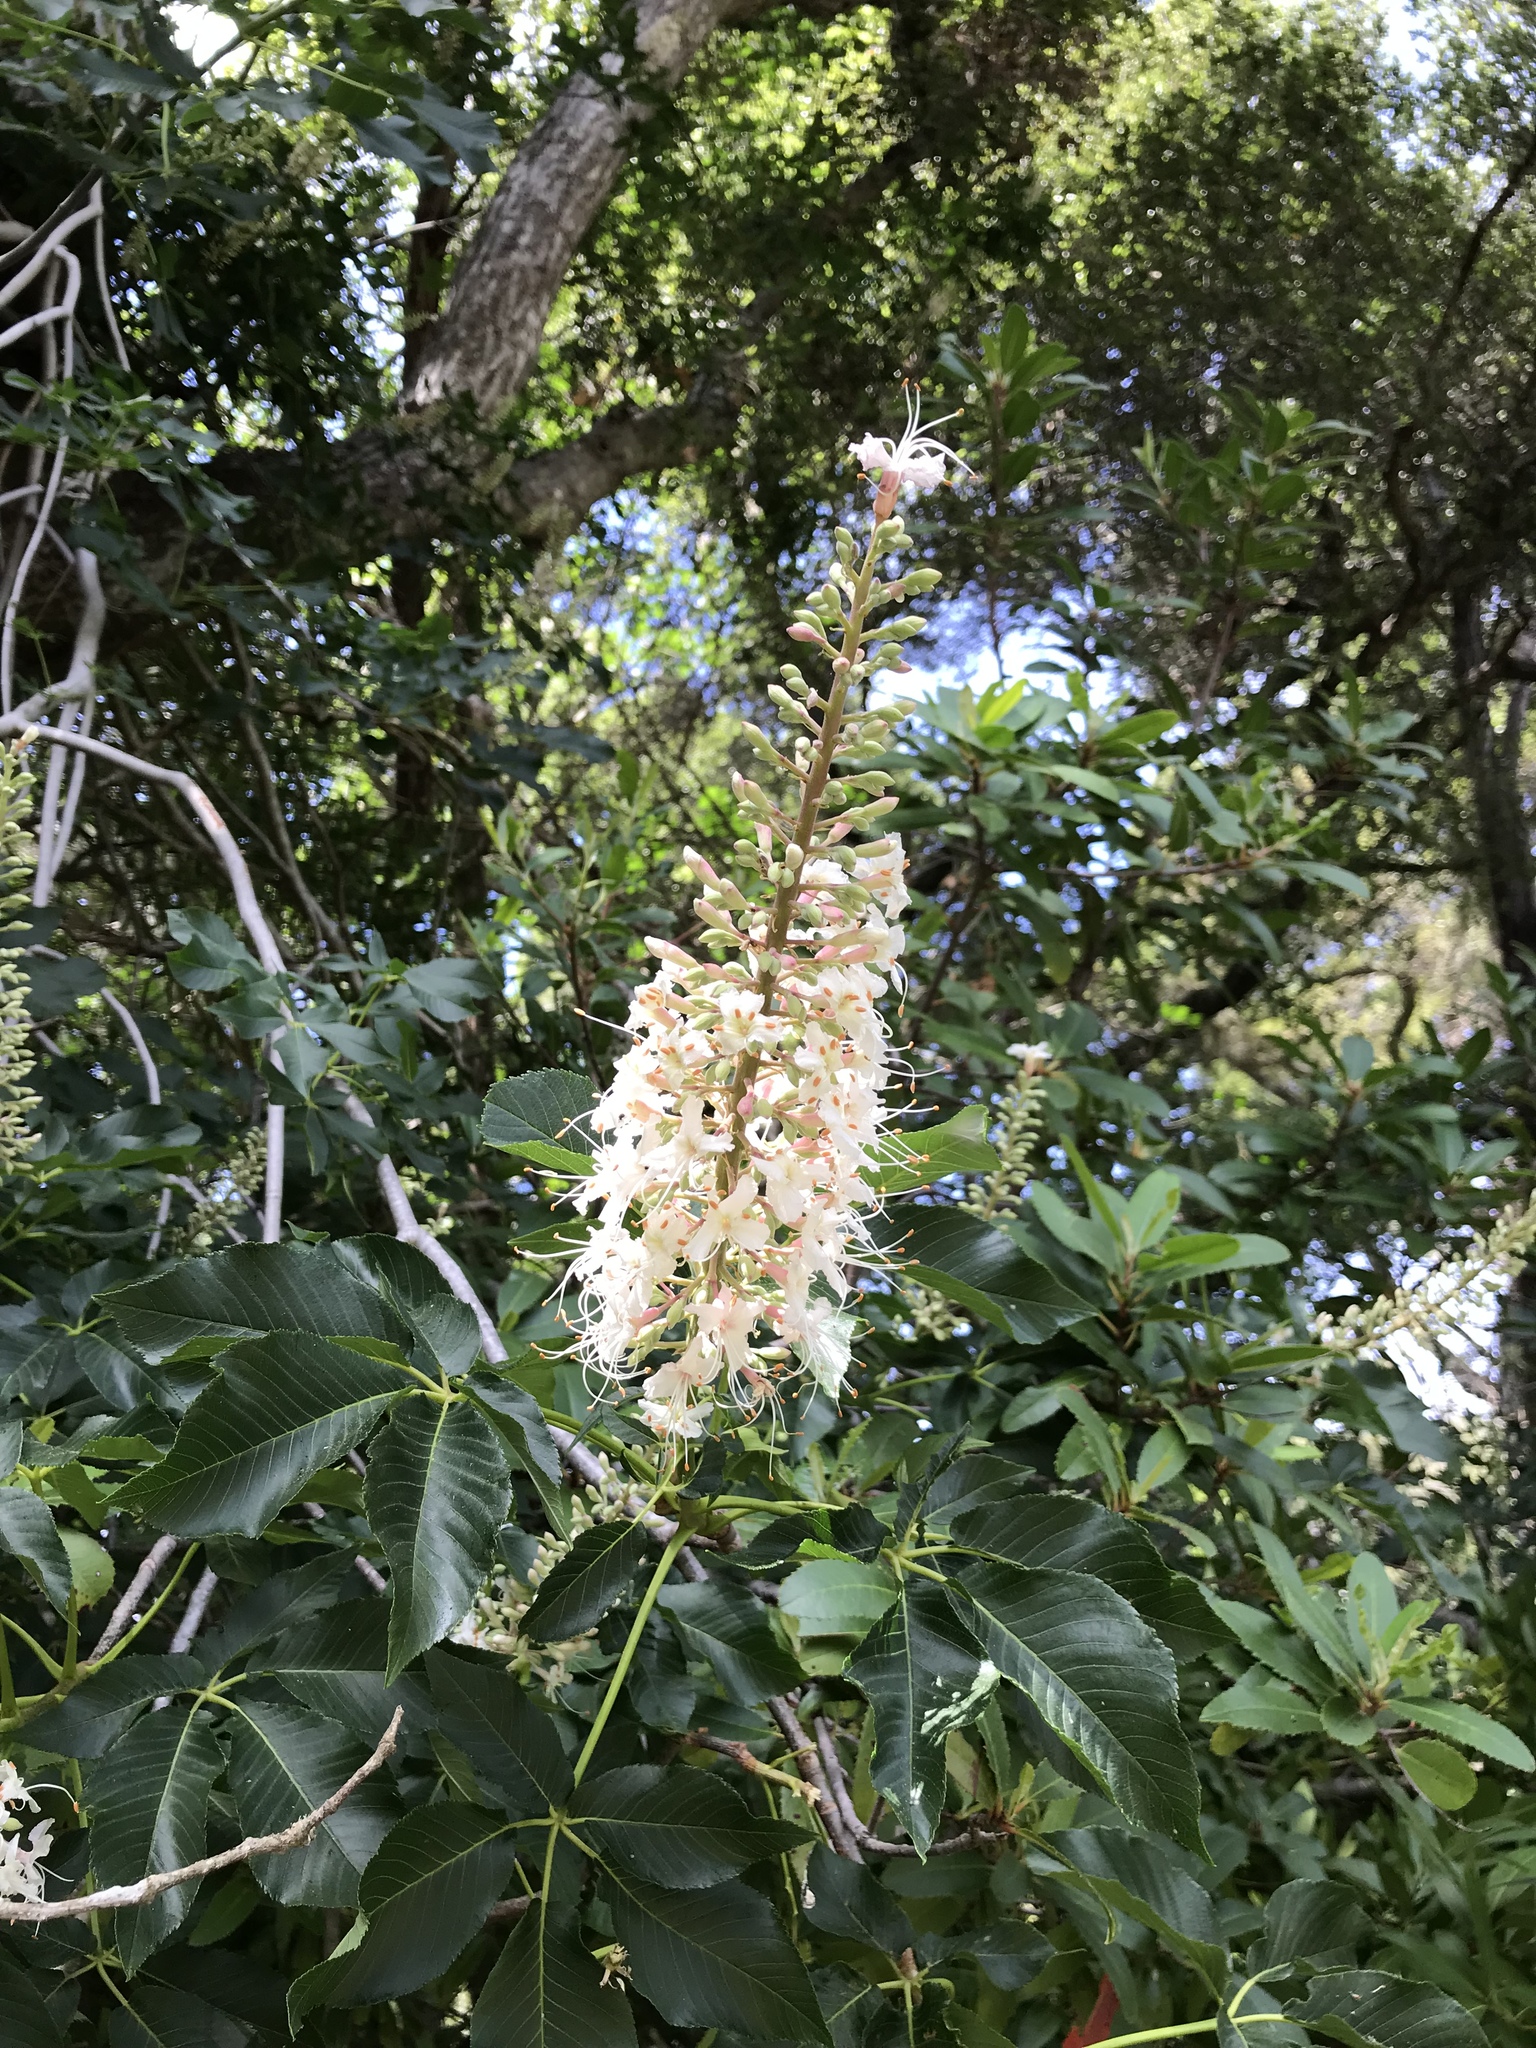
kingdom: Plantae
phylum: Tracheophyta
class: Magnoliopsida
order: Sapindales
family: Sapindaceae
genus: Aesculus
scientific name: Aesculus californica
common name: California buckeye
